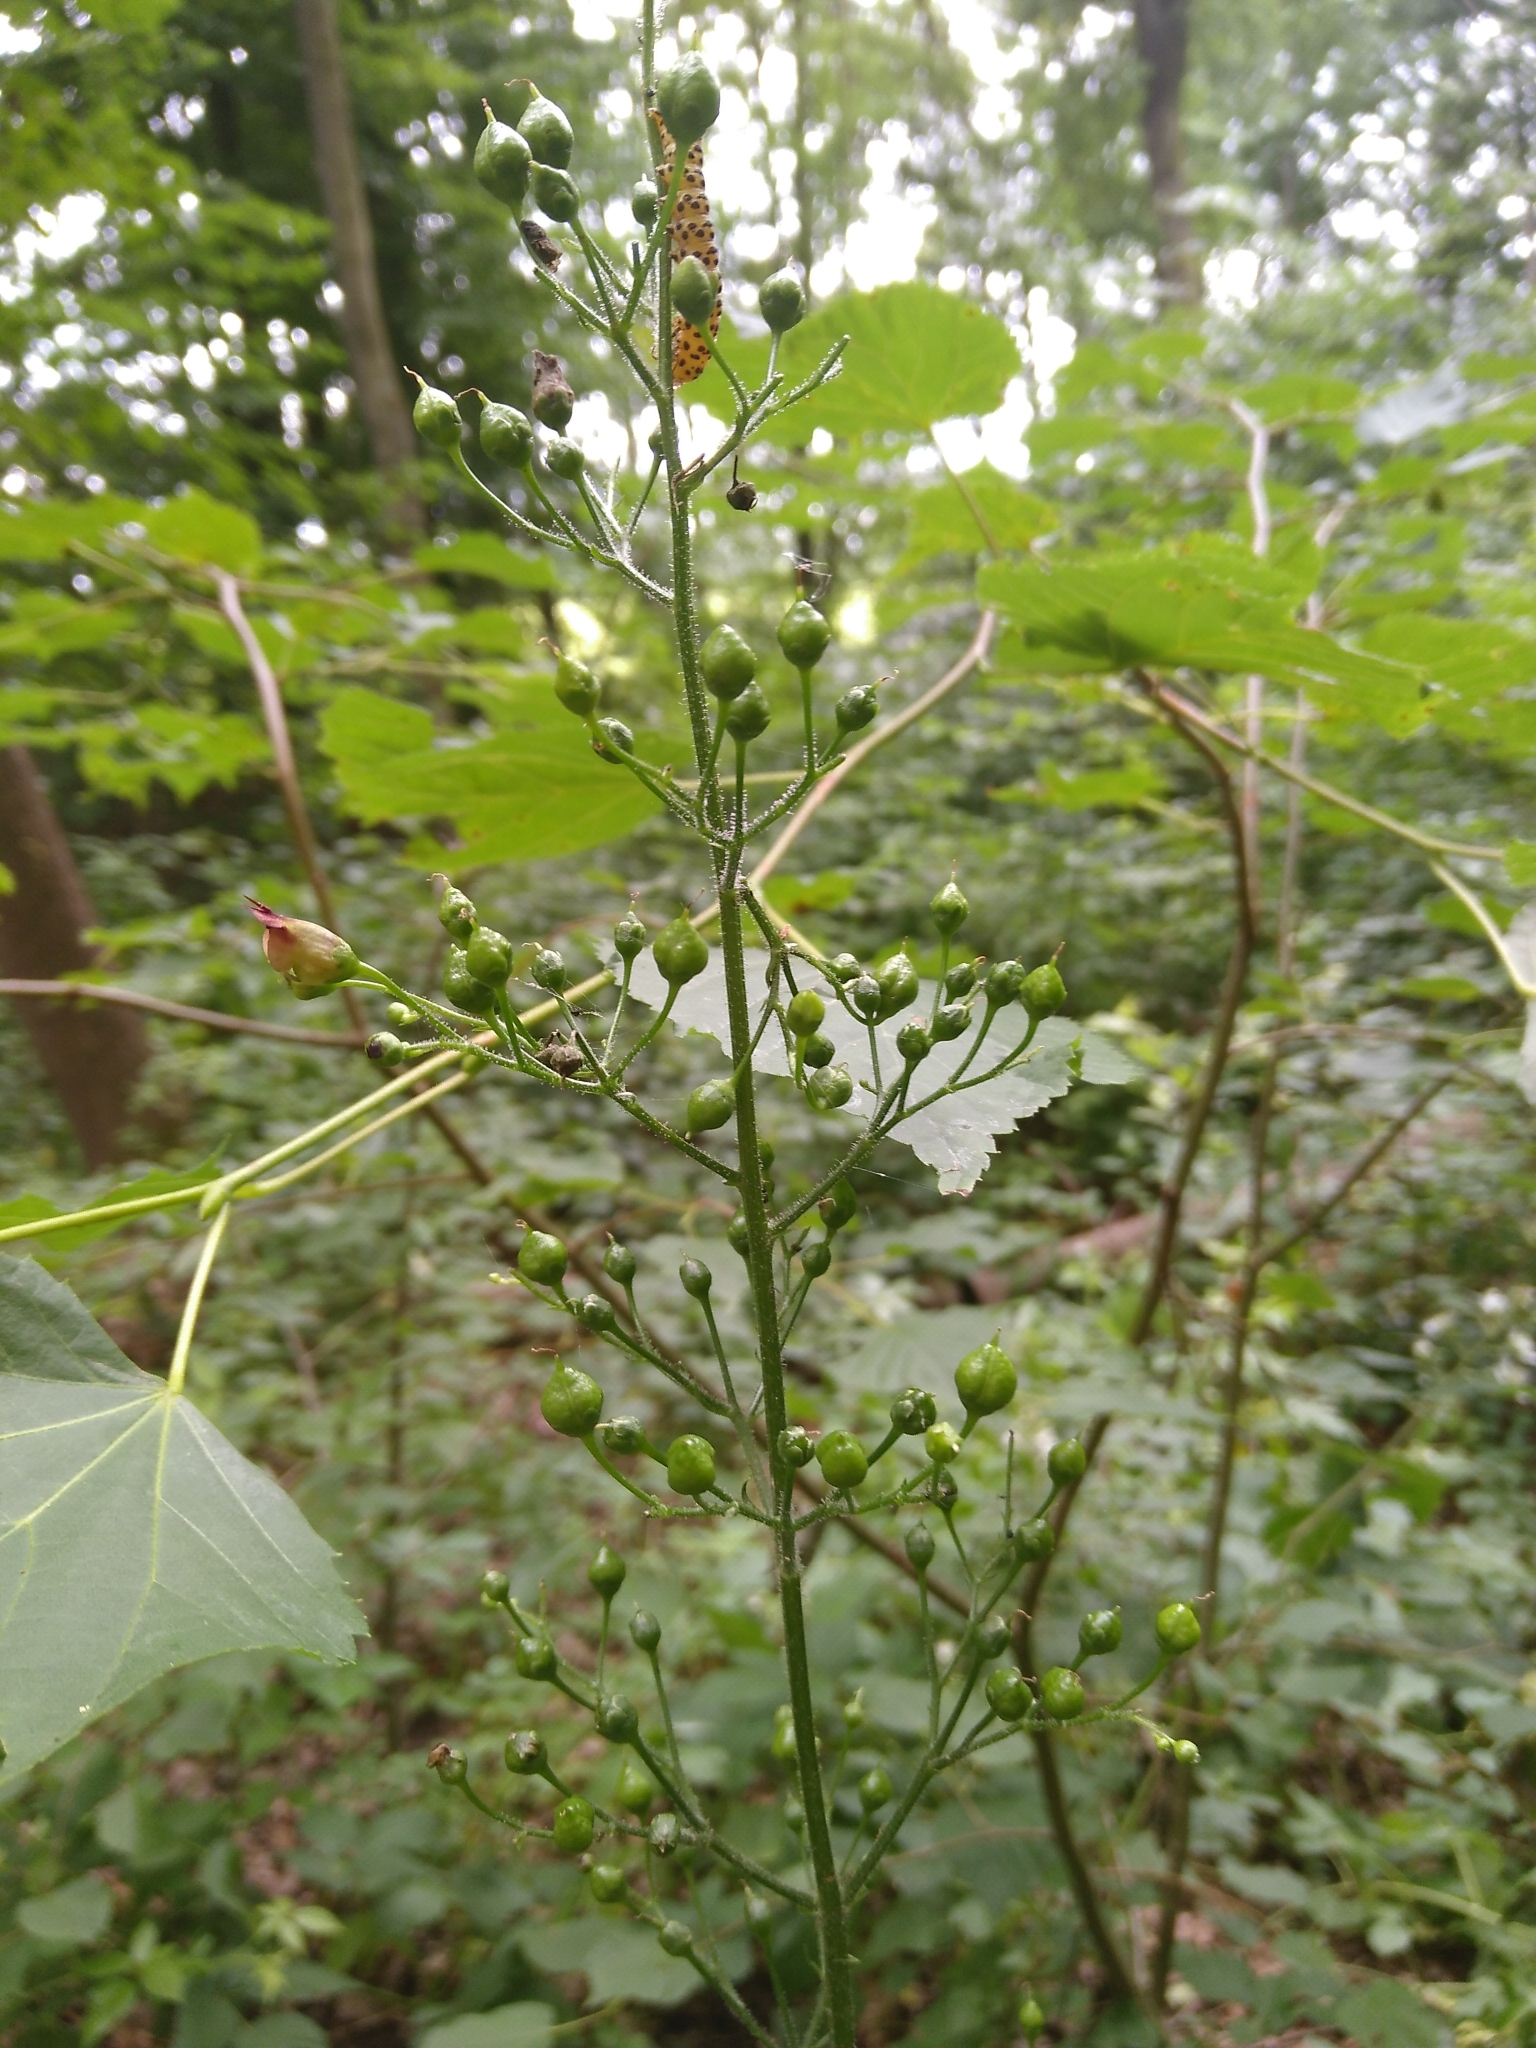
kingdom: Plantae
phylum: Tracheophyta
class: Magnoliopsida
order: Lamiales
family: Scrophulariaceae
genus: Scrophularia
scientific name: Scrophularia nodosa
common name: Common figwort
